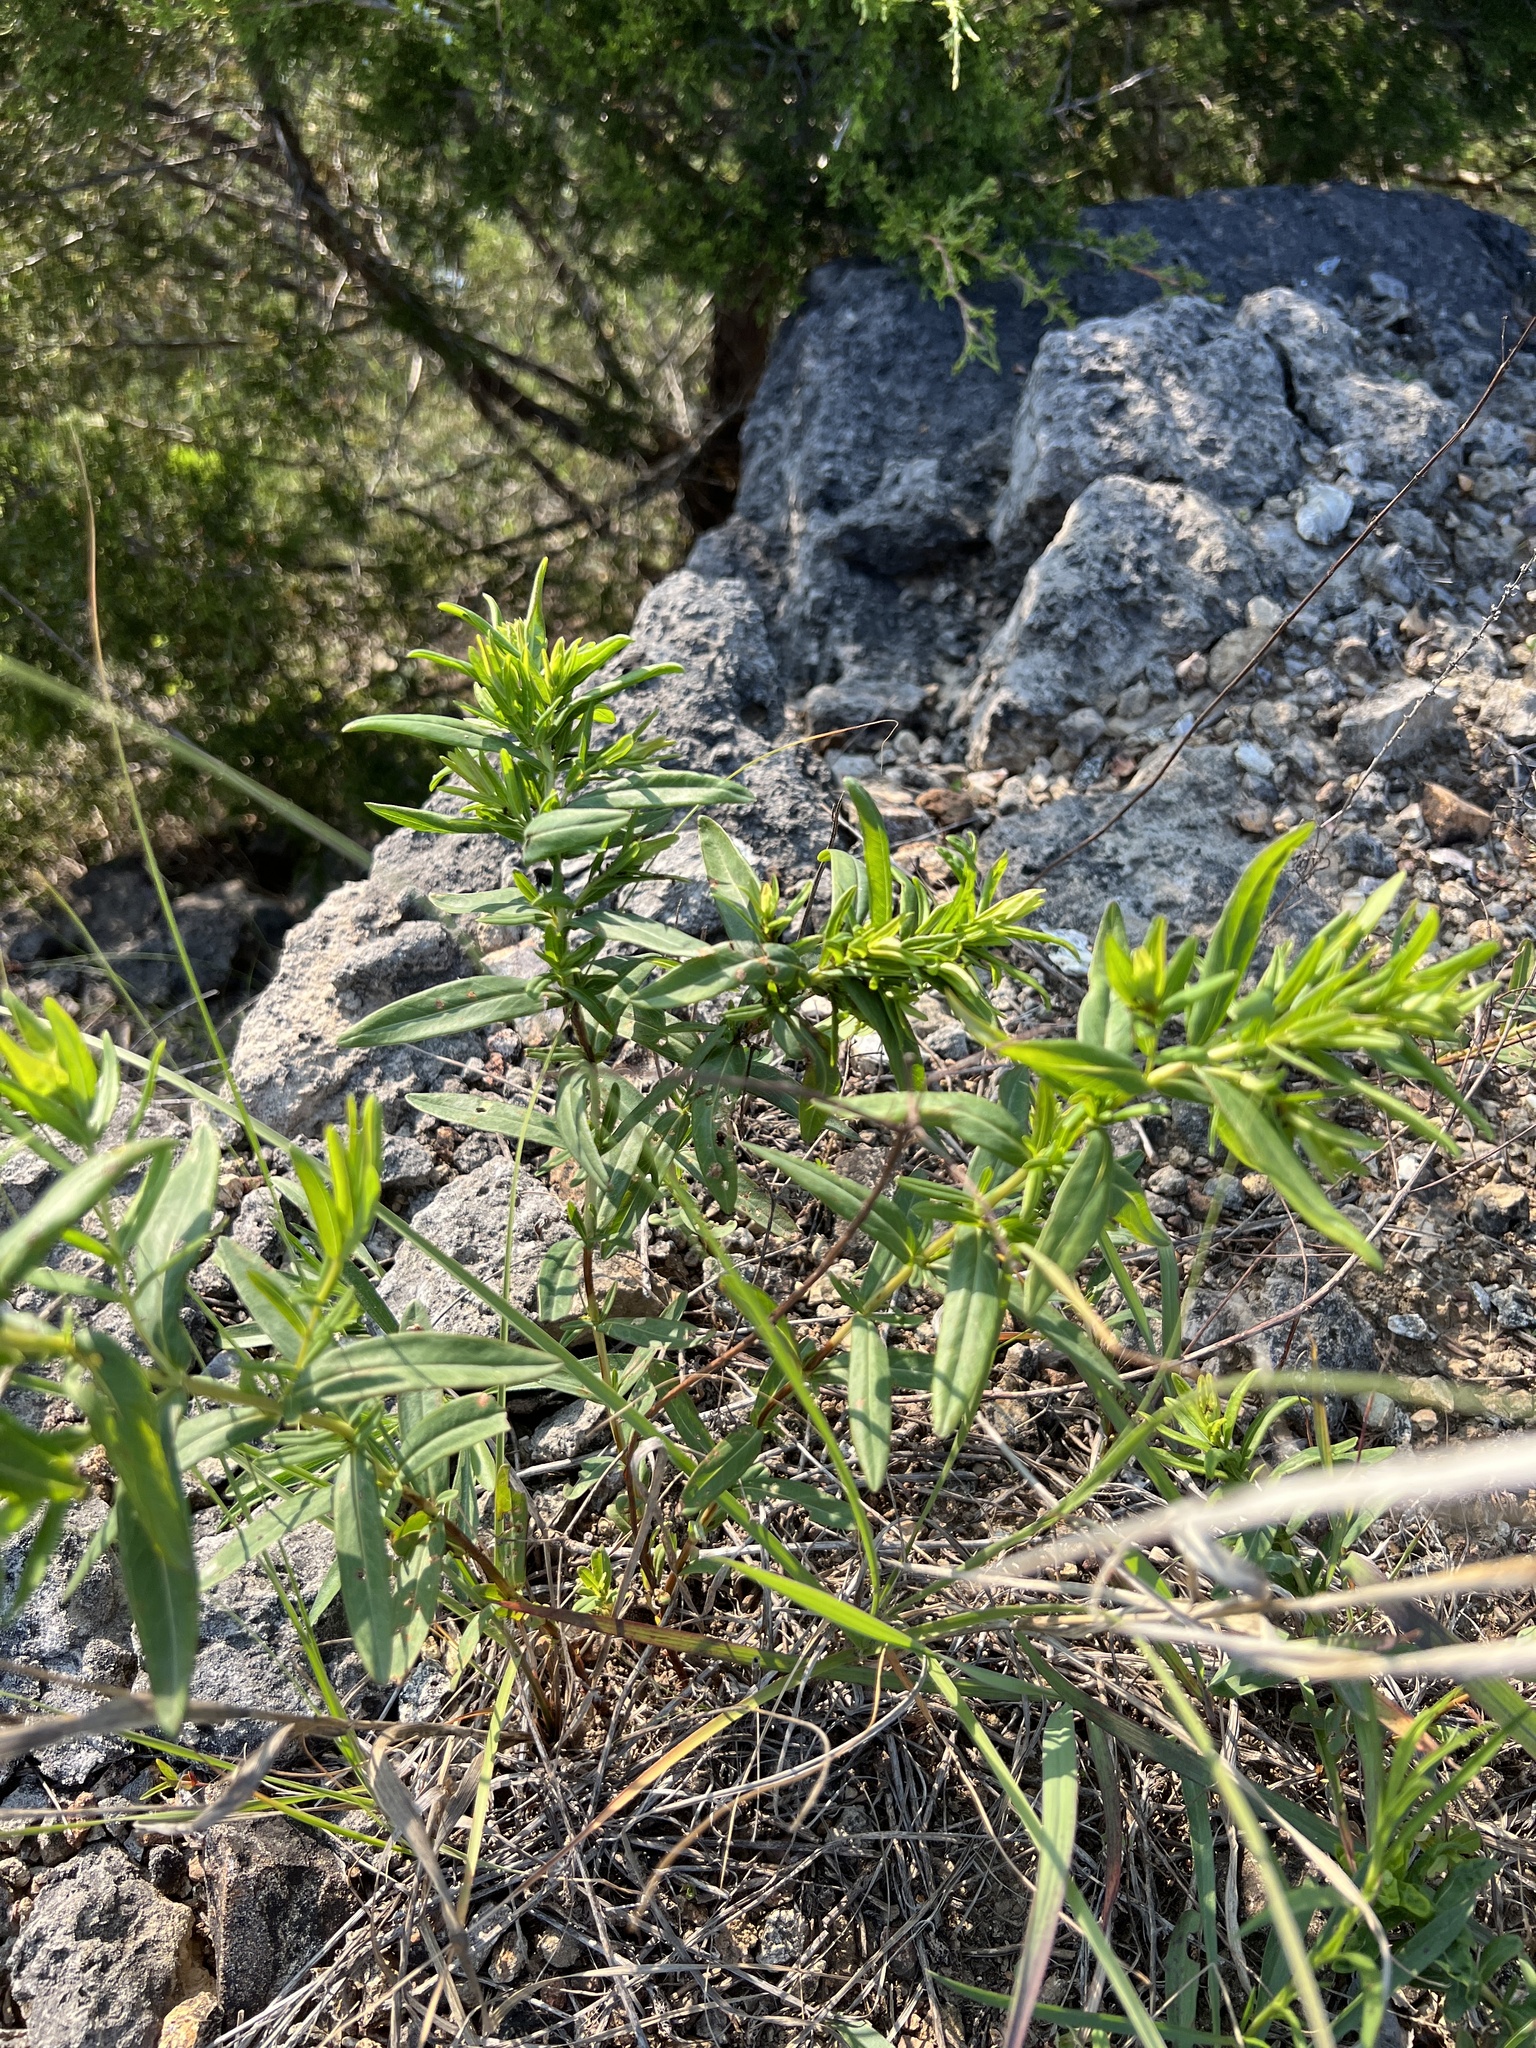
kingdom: Plantae
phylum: Tracheophyta
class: Magnoliopsida
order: Malpighiales
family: Hypericaceae
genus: Hypericum
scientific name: Hypericum sphaerocarpum
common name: Round-fruited st. john's-wort
